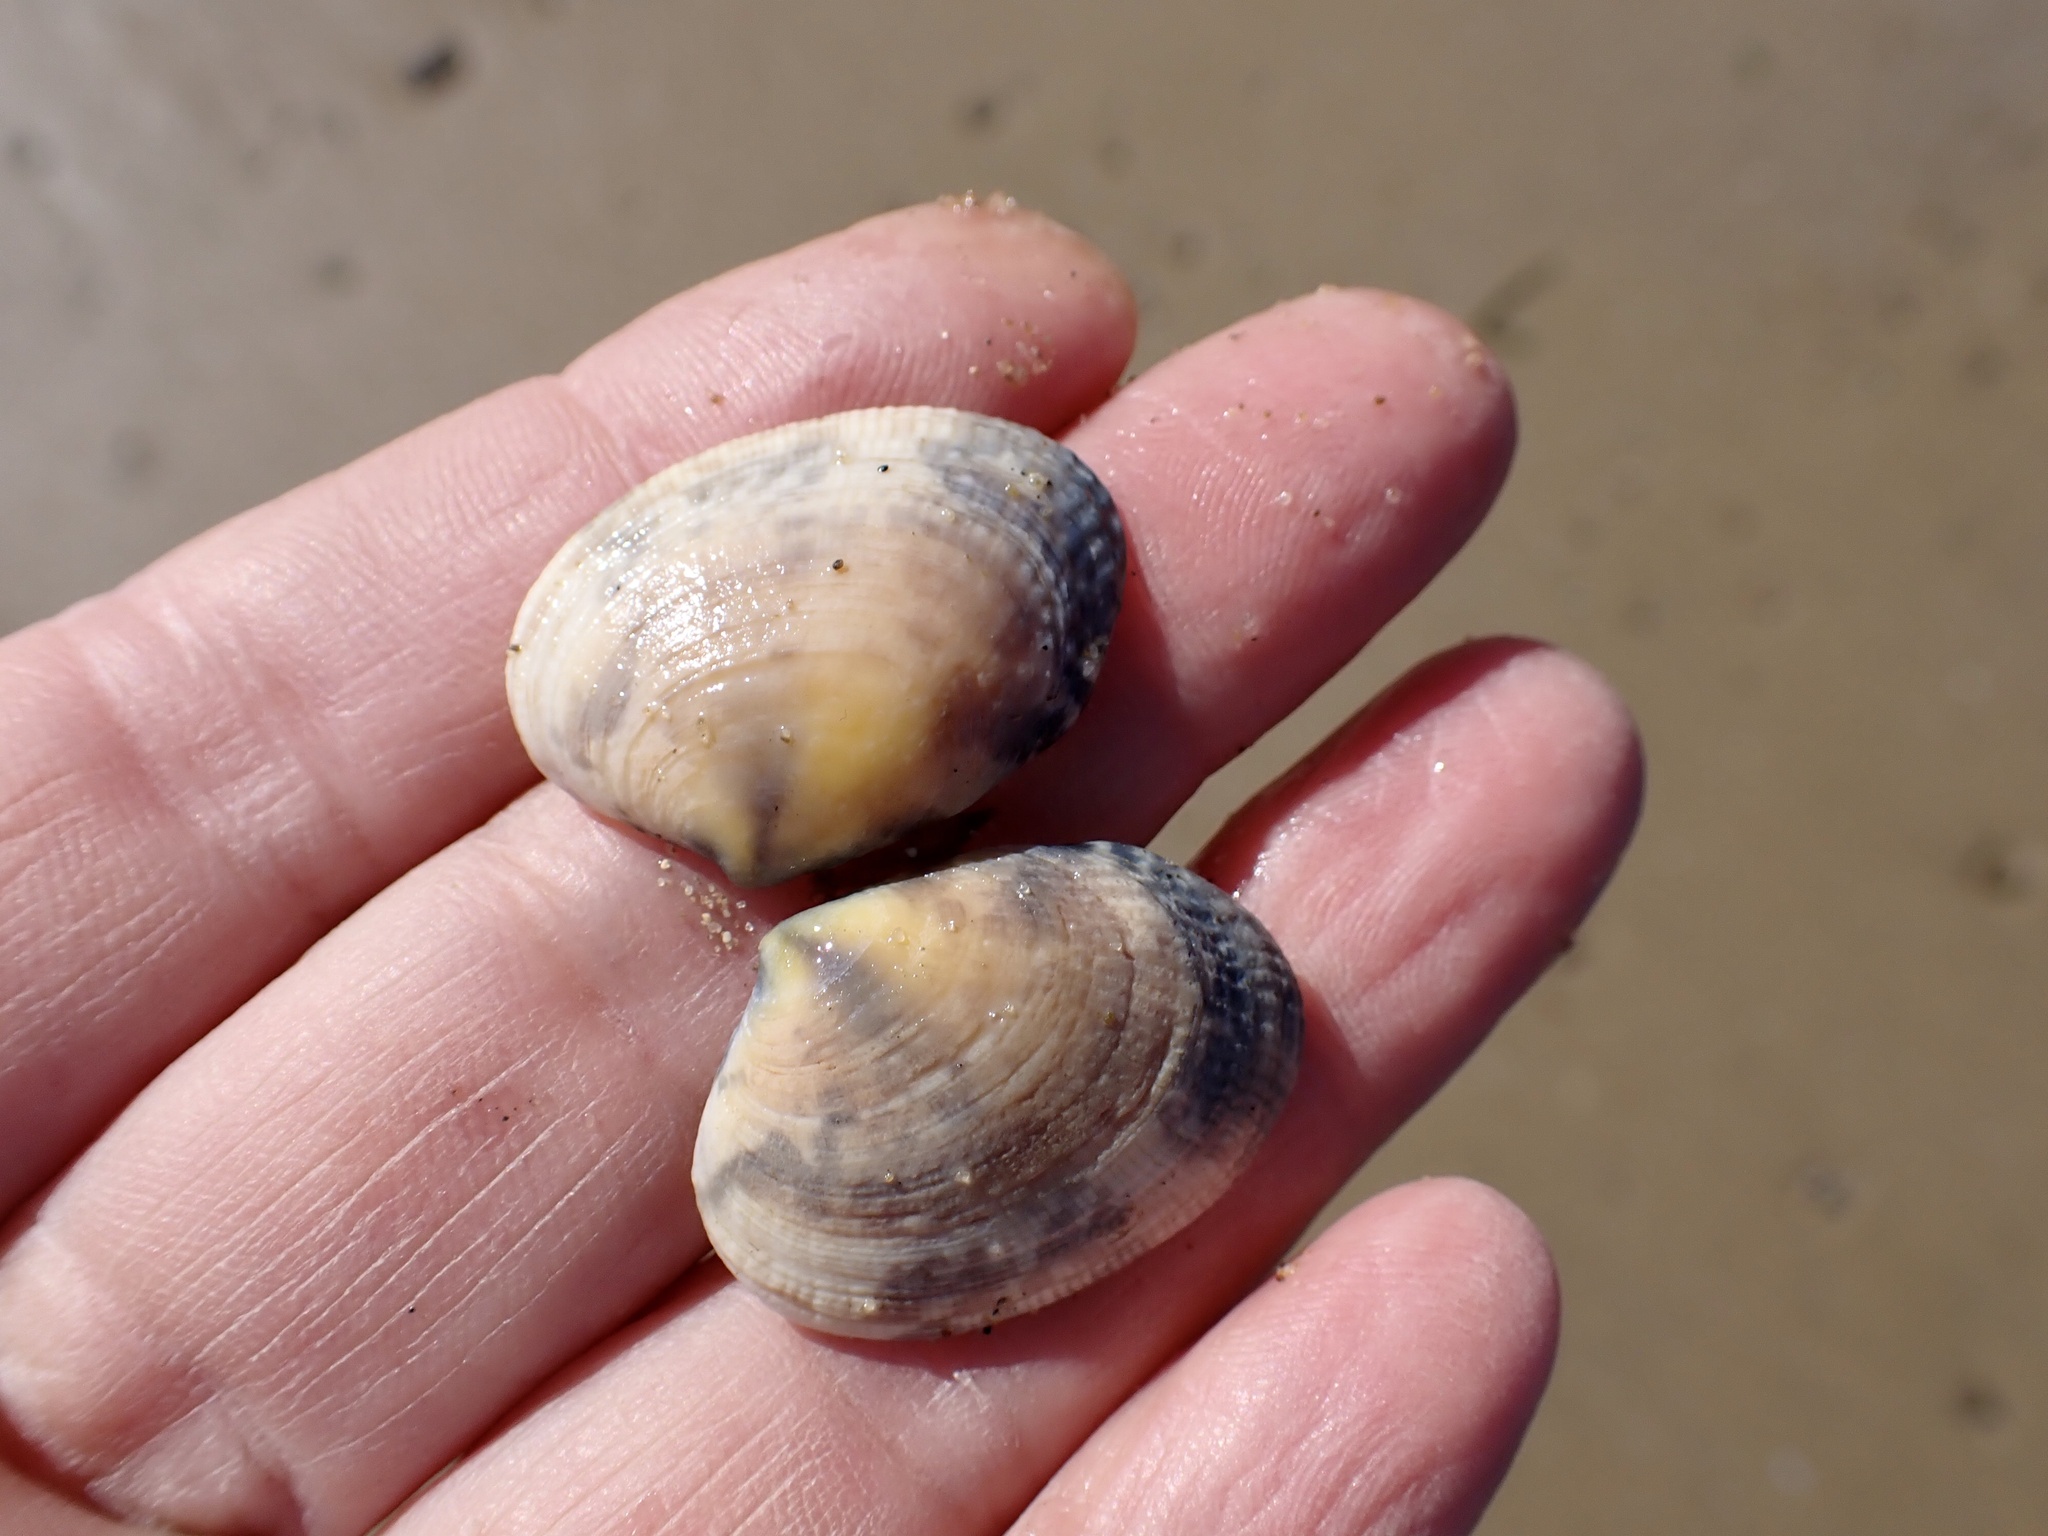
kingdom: Animalia
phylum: Mollusca
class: Bivalvia
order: Venerida
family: Veneridae
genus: Ruditapes
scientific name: Ruditapes philippinarum
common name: Manila clam
